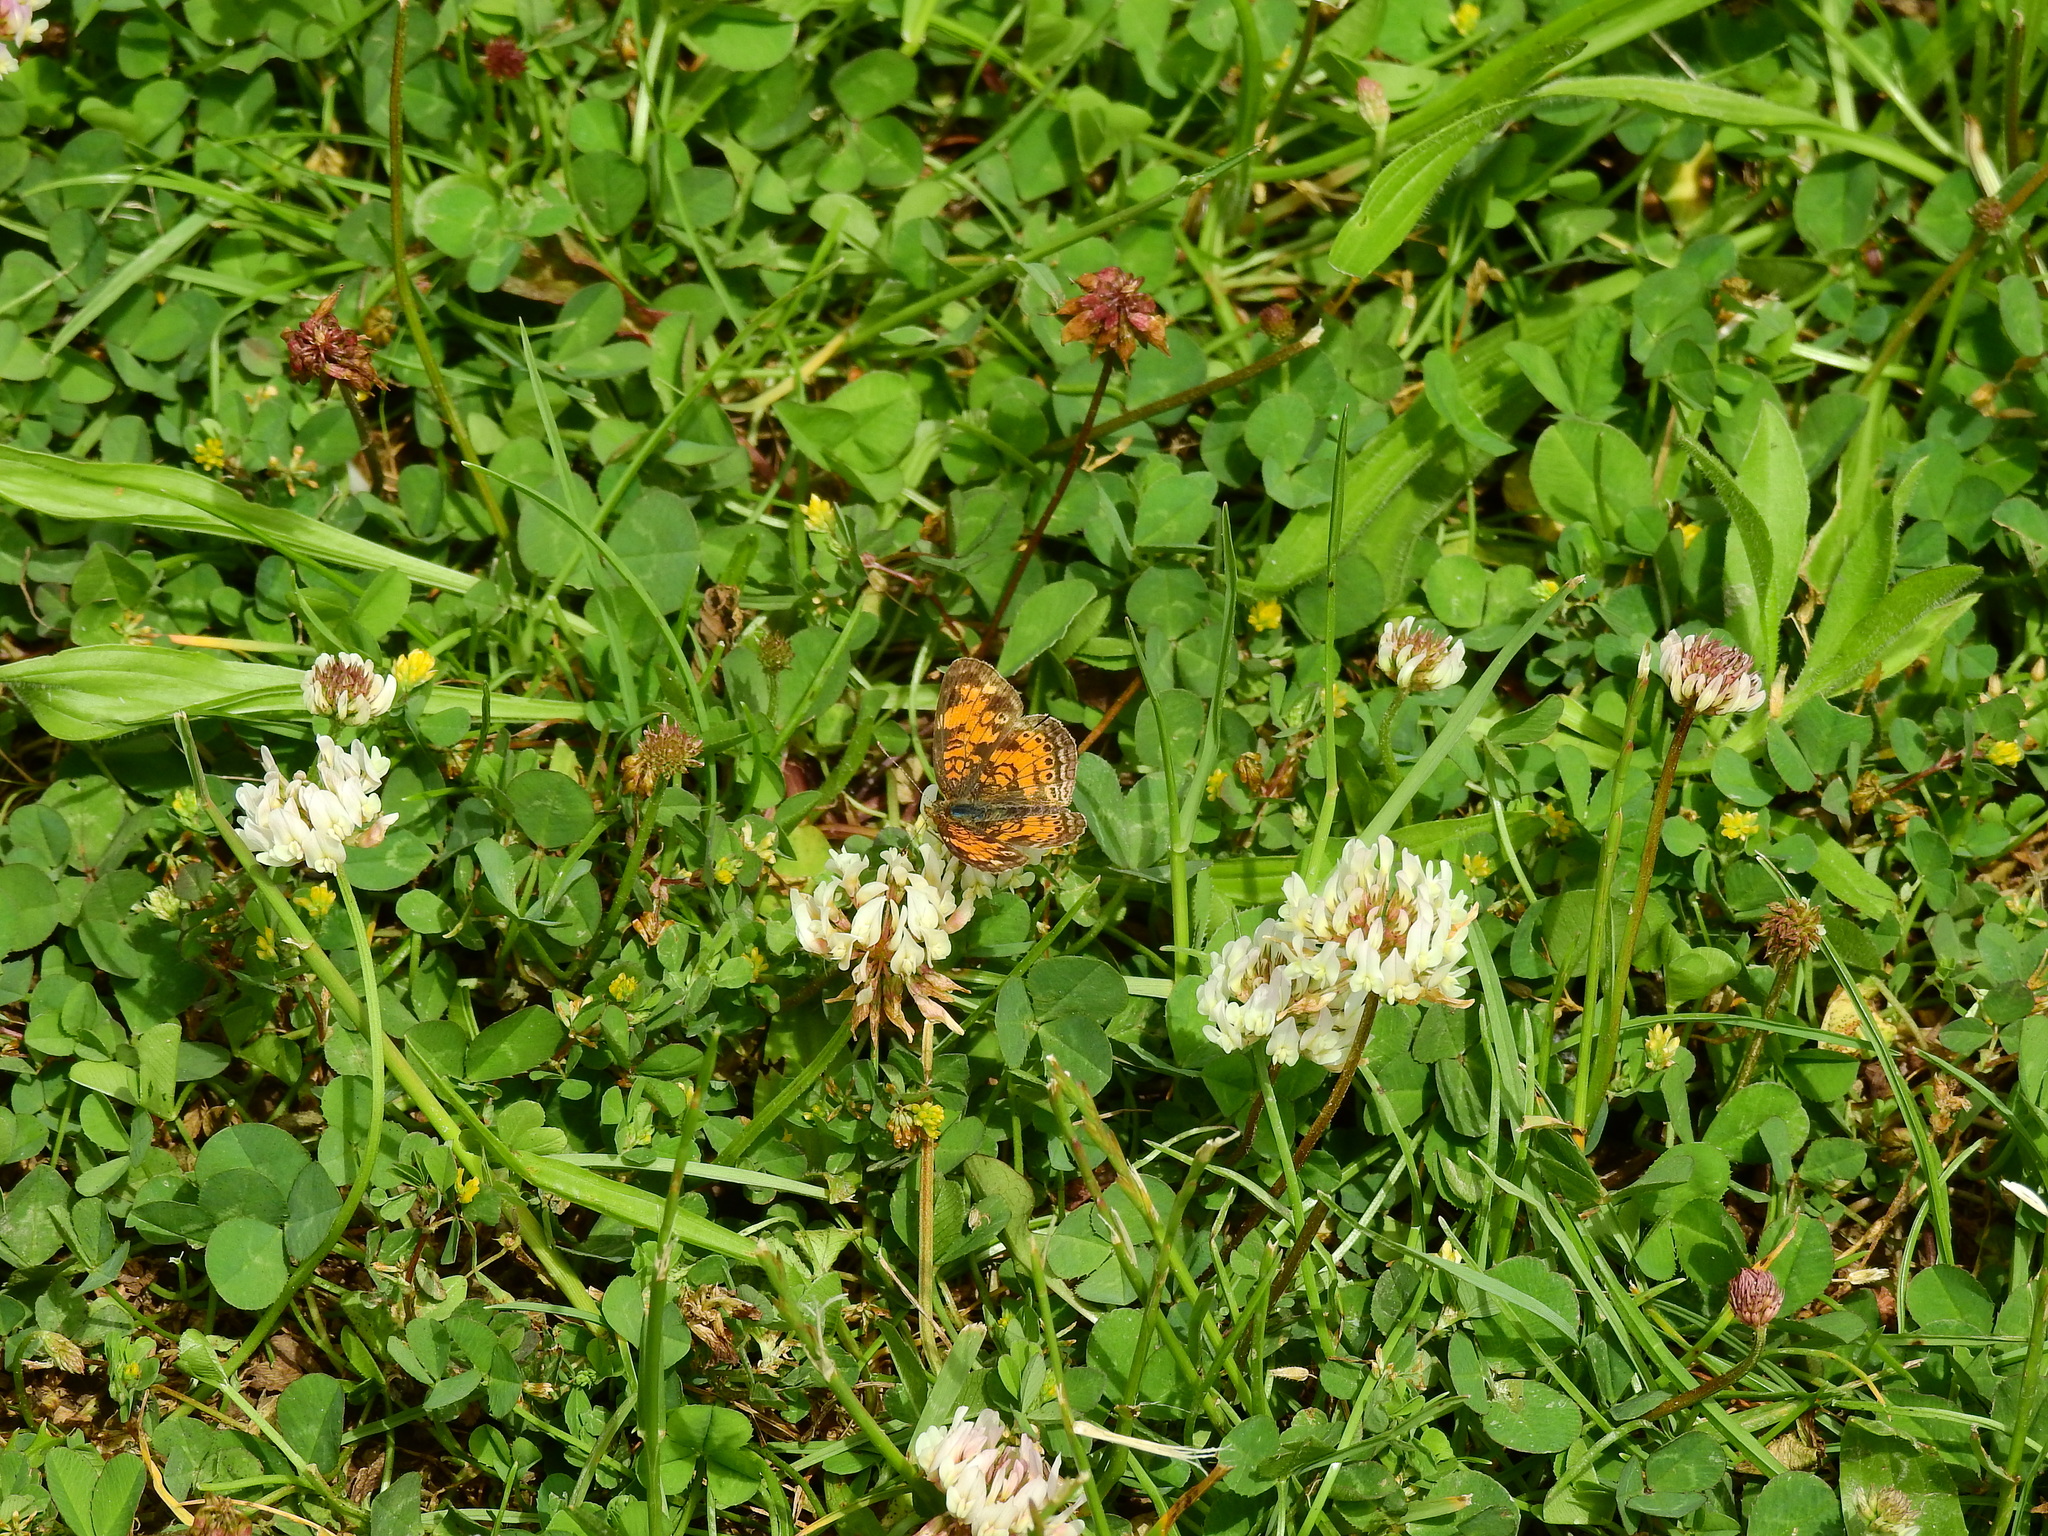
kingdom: Animalia
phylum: Arthropoda
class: Insecta
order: Lepidoptera
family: Nymphalidae
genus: Phyciodes
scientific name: Phyciodes tharos
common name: Pearl crescent
